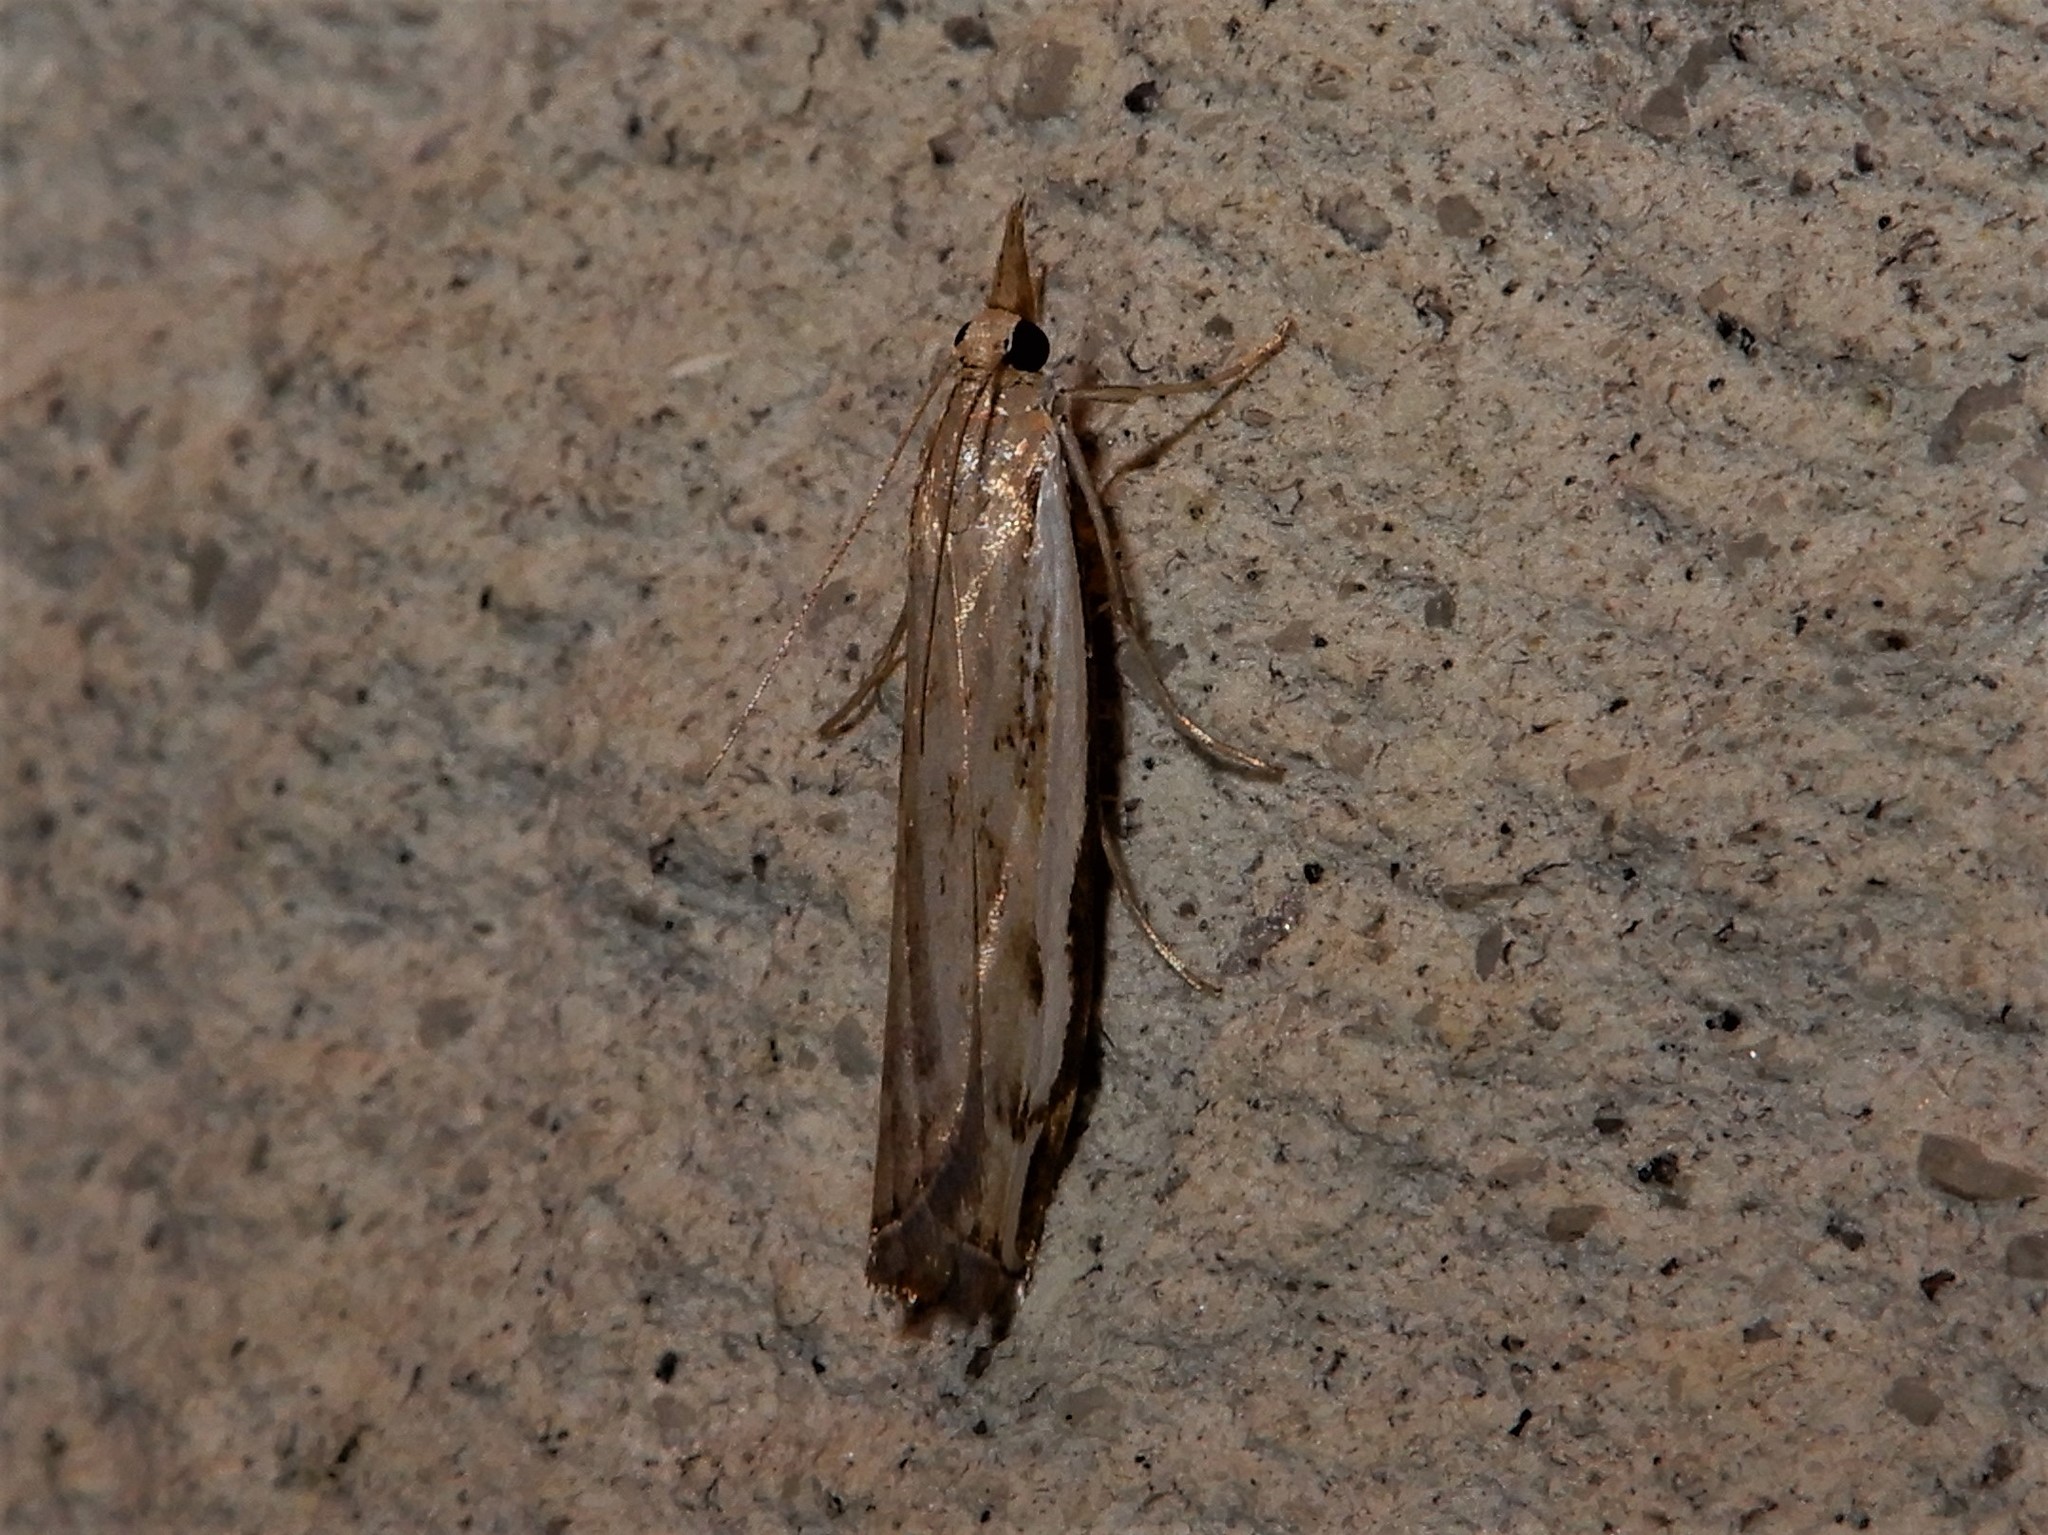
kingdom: Animalia
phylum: Arthropoda
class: Insecta
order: Lepidoptera
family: Crambidae
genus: Orocrambus
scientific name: Orocrambus flexuosellus
